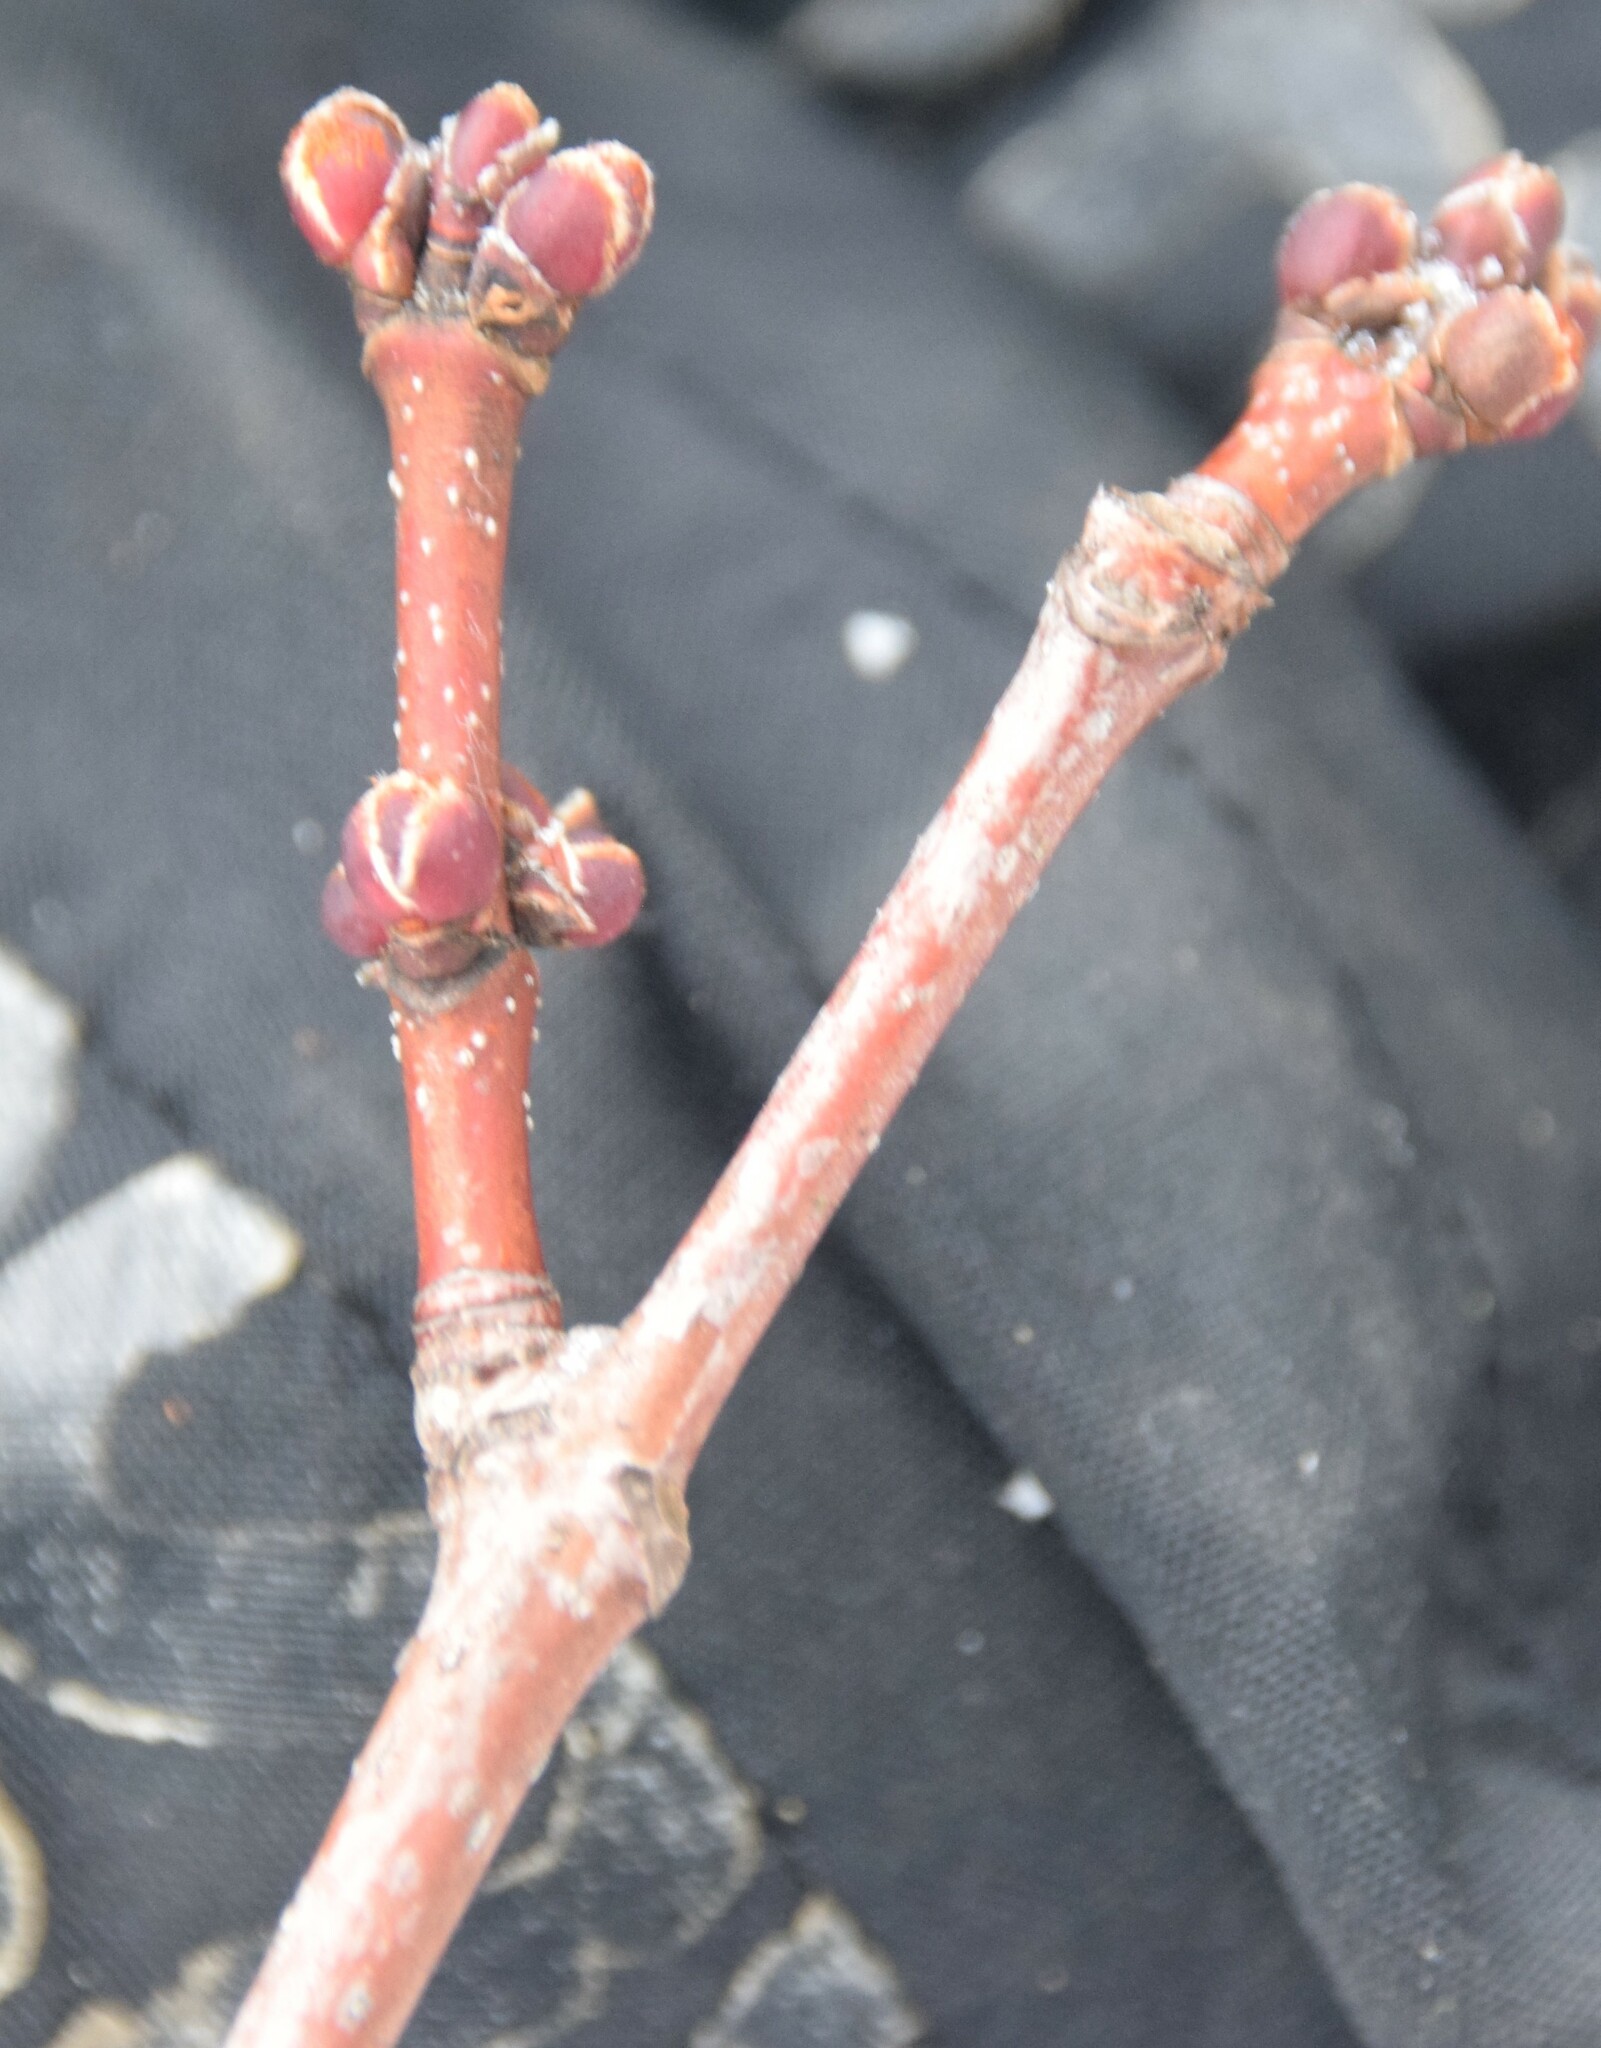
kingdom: Plantae
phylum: Tracheophyta
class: Magnoliopsida
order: Sapindales
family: Sapindaceae
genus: Acer
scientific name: Acer rubrum
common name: Red maple
